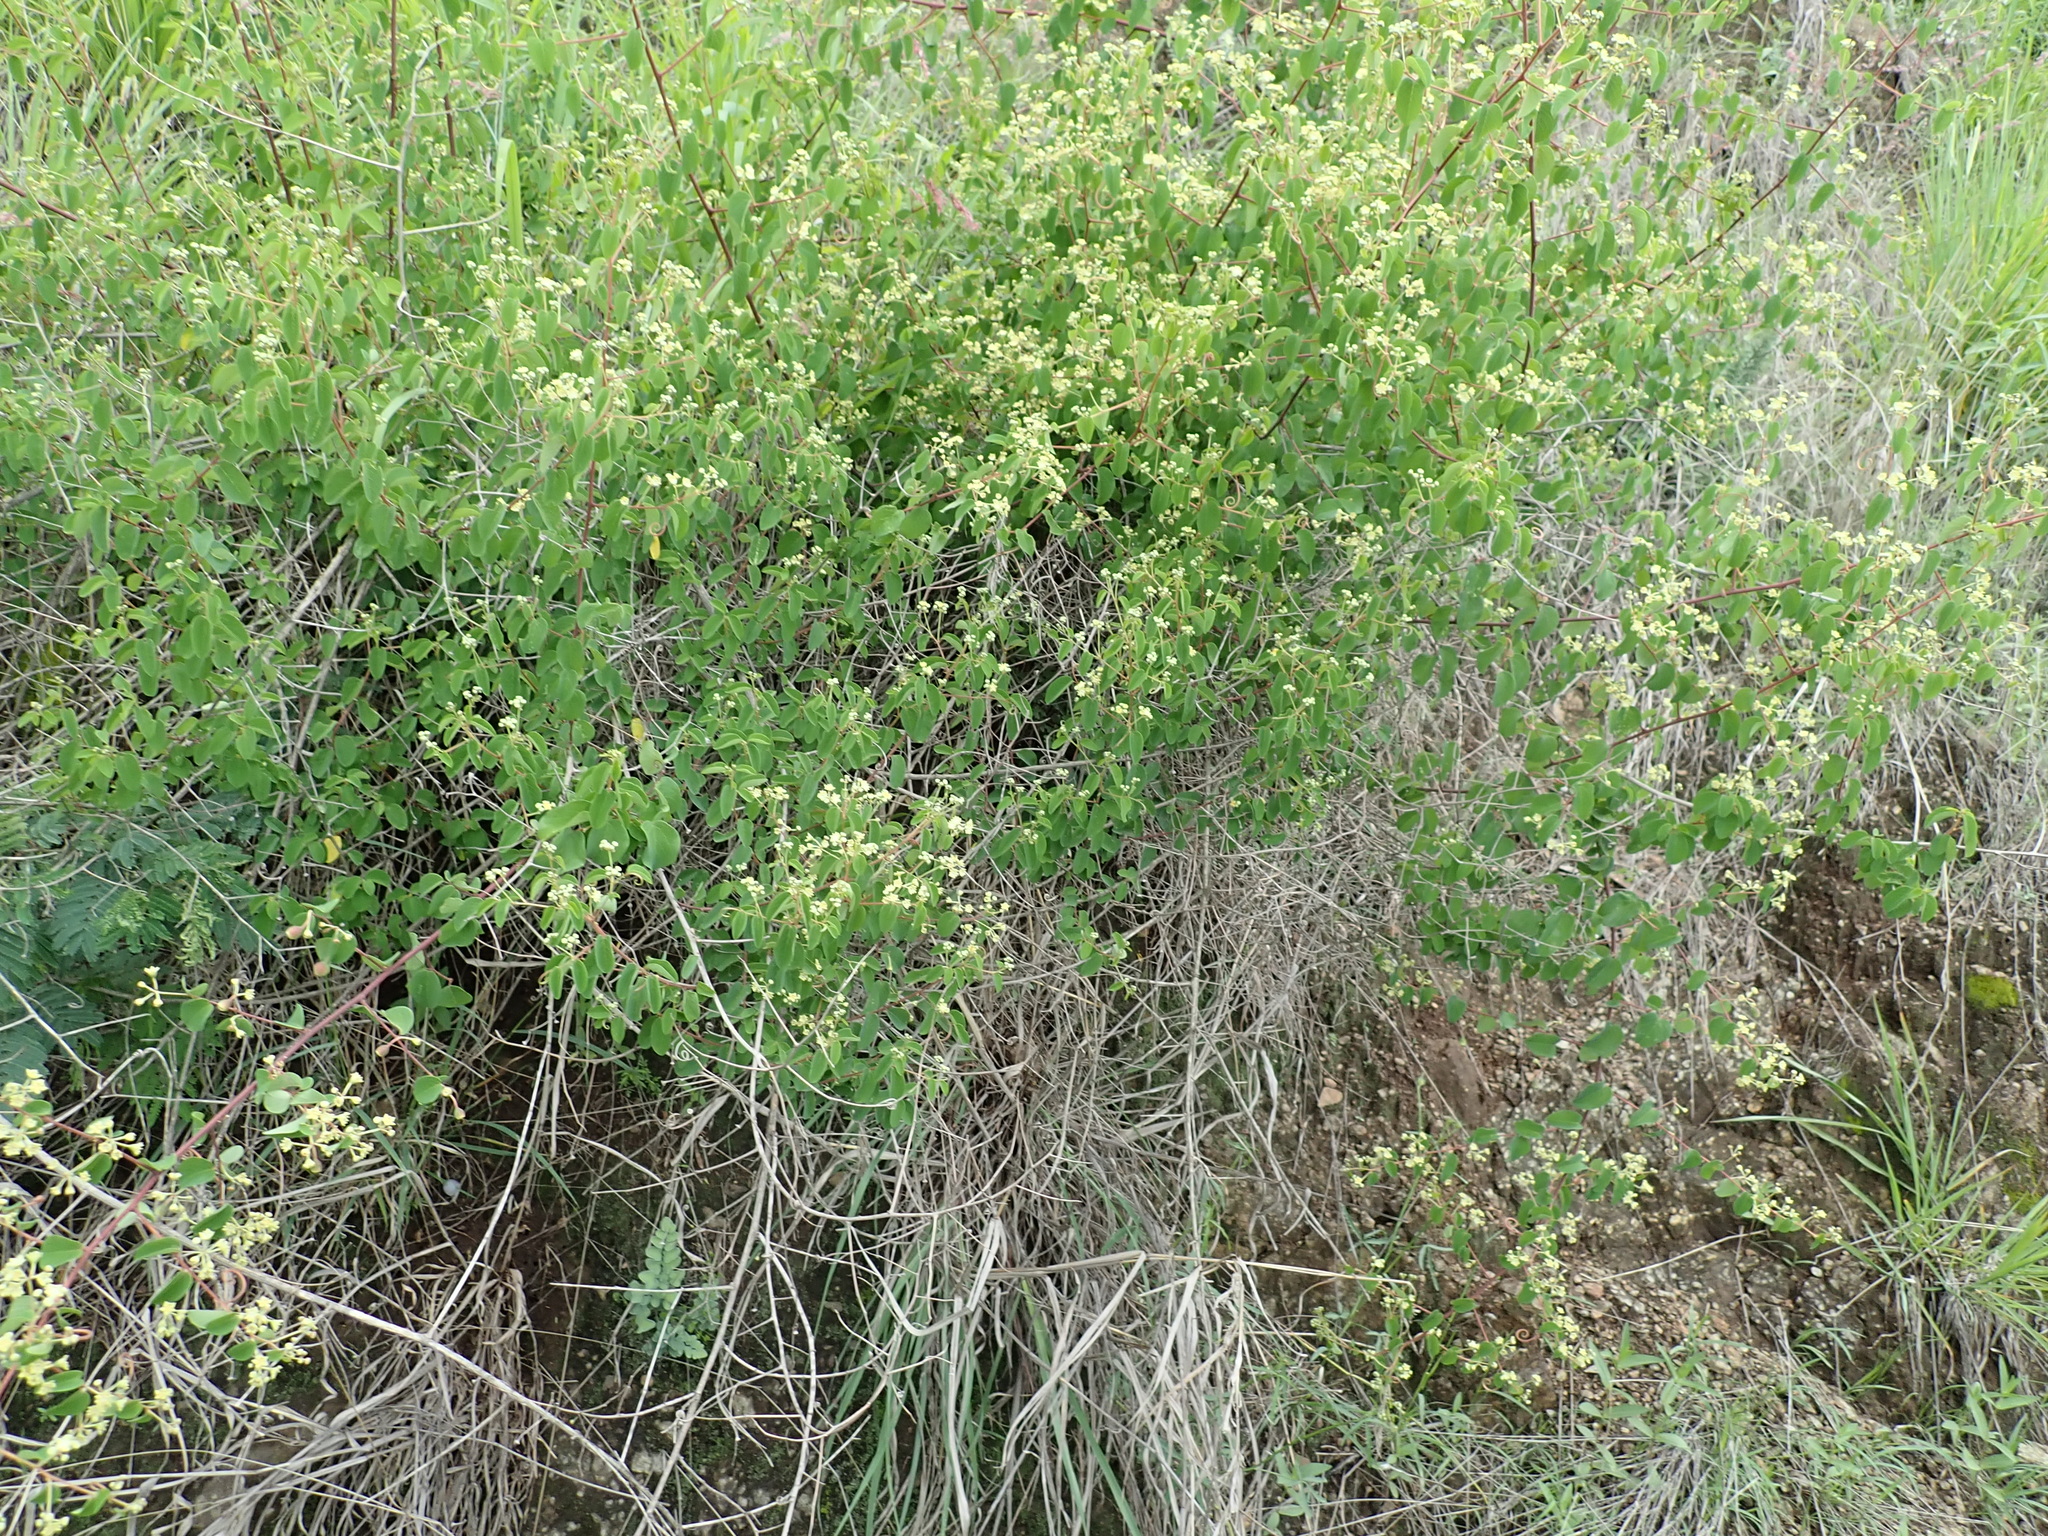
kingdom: Plantae
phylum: Tracheophyta
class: Magnoliopsida
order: Rosales
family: Rhamnaceae
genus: Helinus
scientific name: Helinus integrifolius
